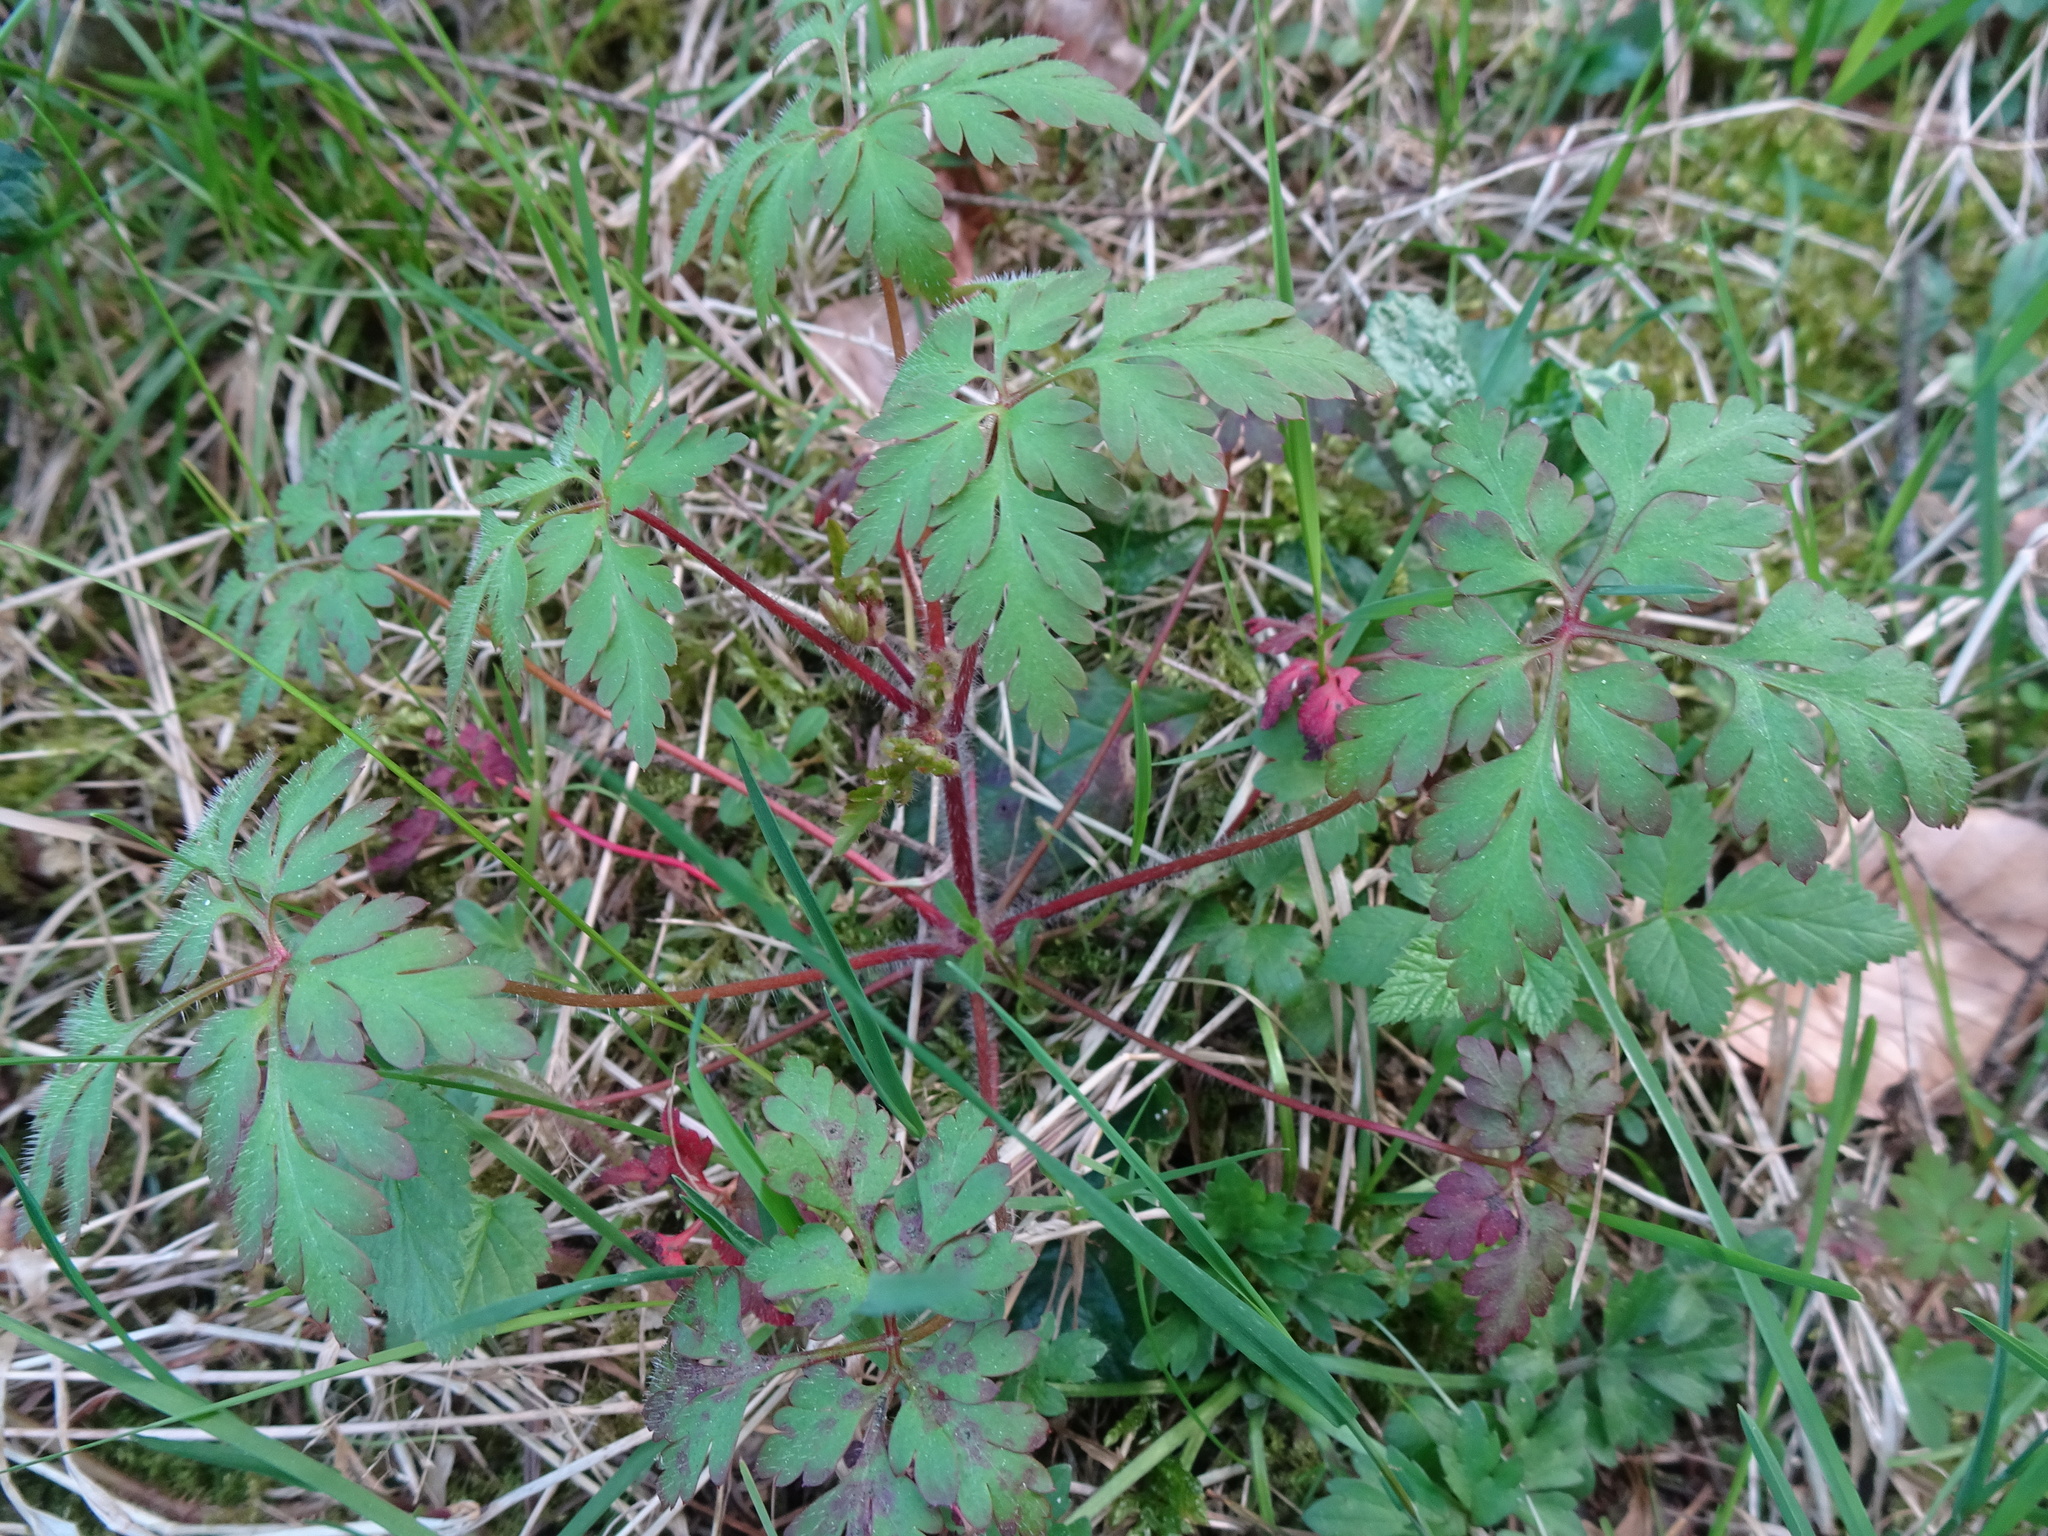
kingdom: Plantae
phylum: Tracheophyta
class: Magnoliopsida
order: Geraniales
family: Geraniaceae
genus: Geranium
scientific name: Geranium robertianum
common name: Herb-robert
